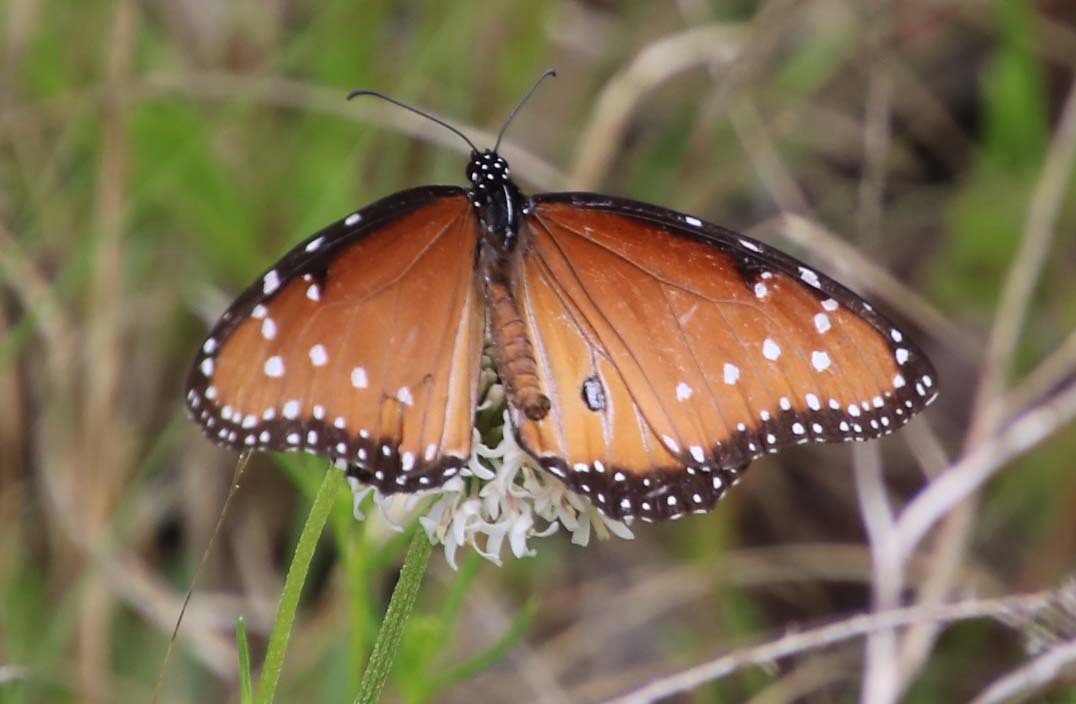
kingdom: Animalia
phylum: Arthropoda
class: Insecta
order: Lepidoptera
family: Nymphalidae
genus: Danaus
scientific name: Danaus gilippus
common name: Queen
